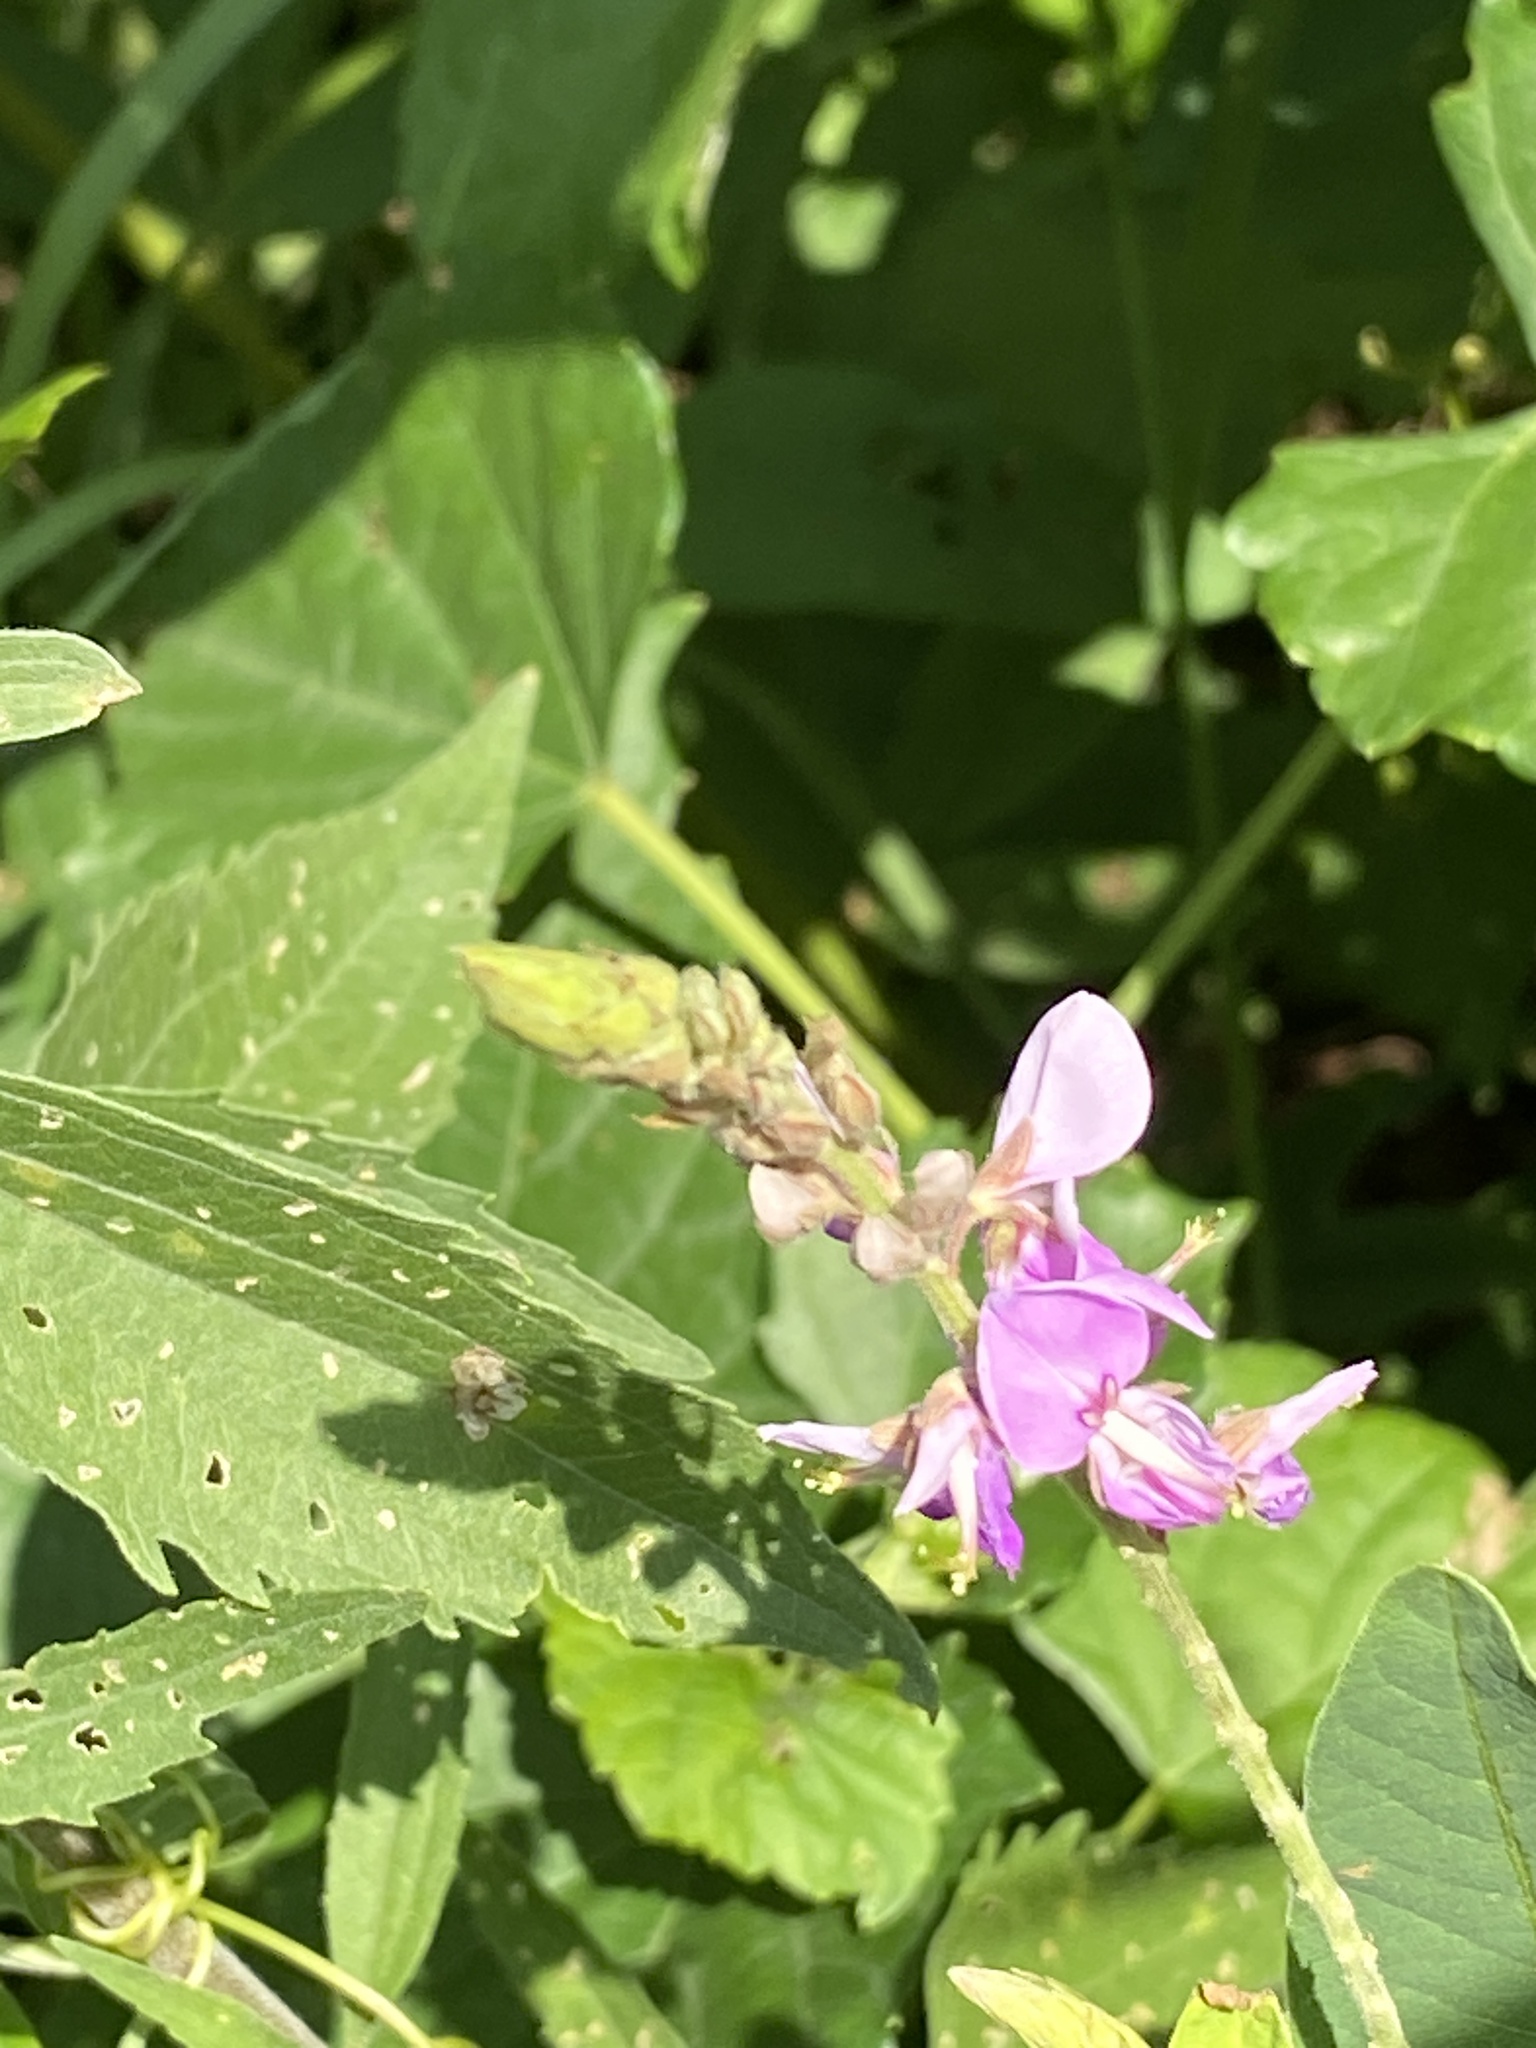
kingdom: Plantae
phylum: Tracheophyta
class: Magnoliopsida
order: Fabales
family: Fabaceae
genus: Desmodium
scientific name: Desmodium canadense
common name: Canada tick-trefoil
